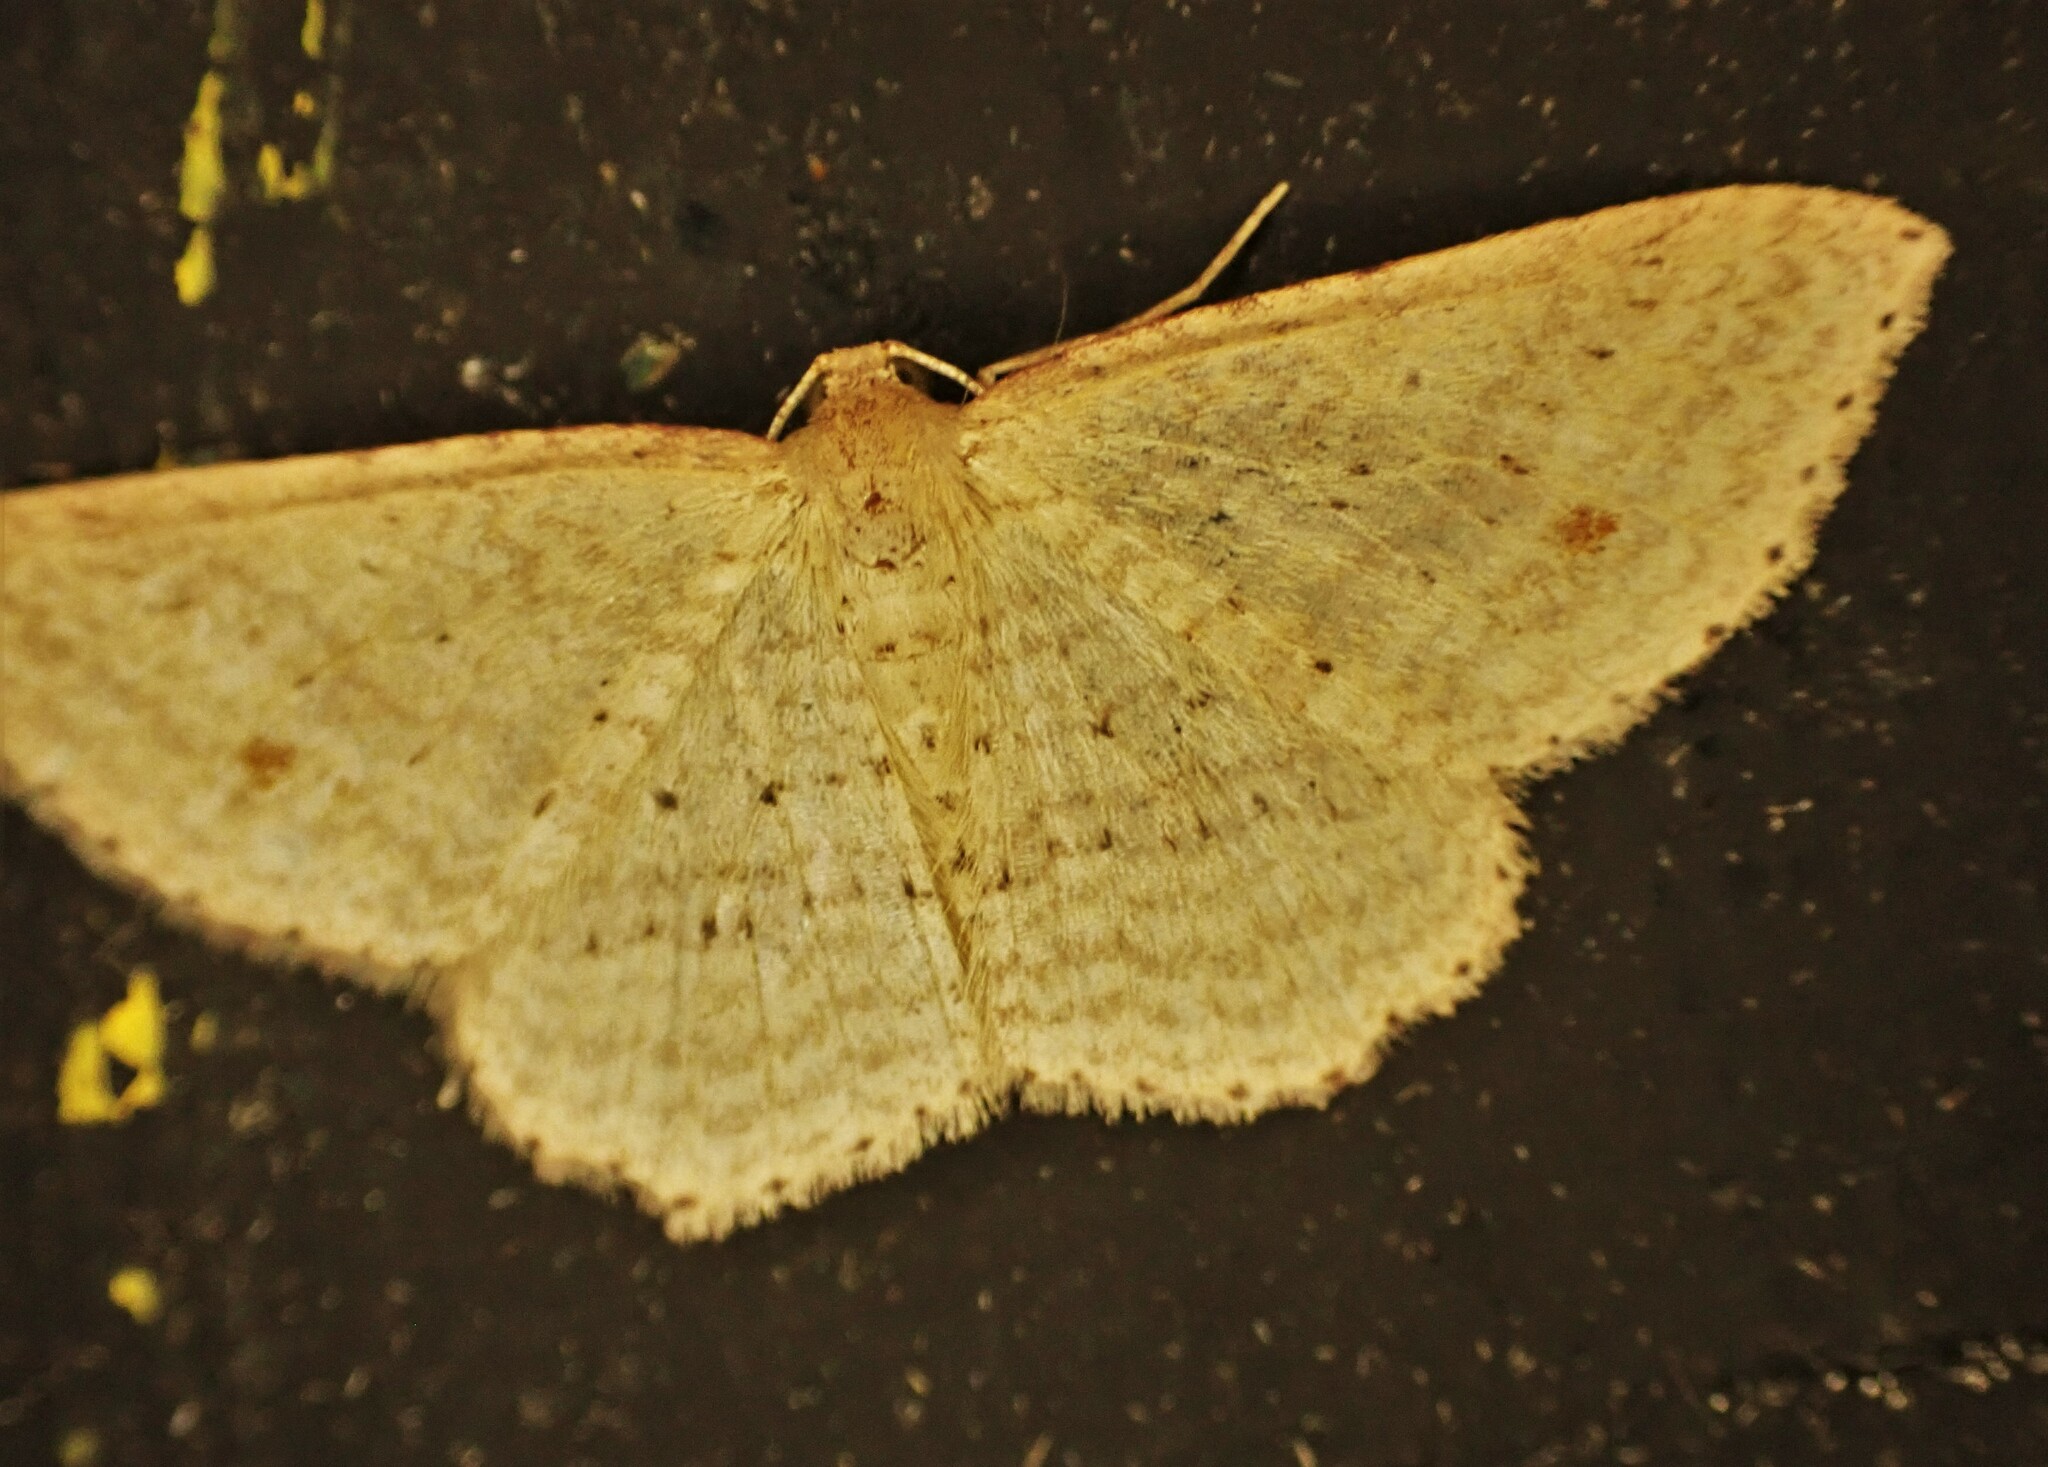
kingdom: Animalia
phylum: Arthropoda
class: Insecta
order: Lepidoptera
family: Geometridae
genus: Poecilasthena
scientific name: Poecilasthena schistaria
